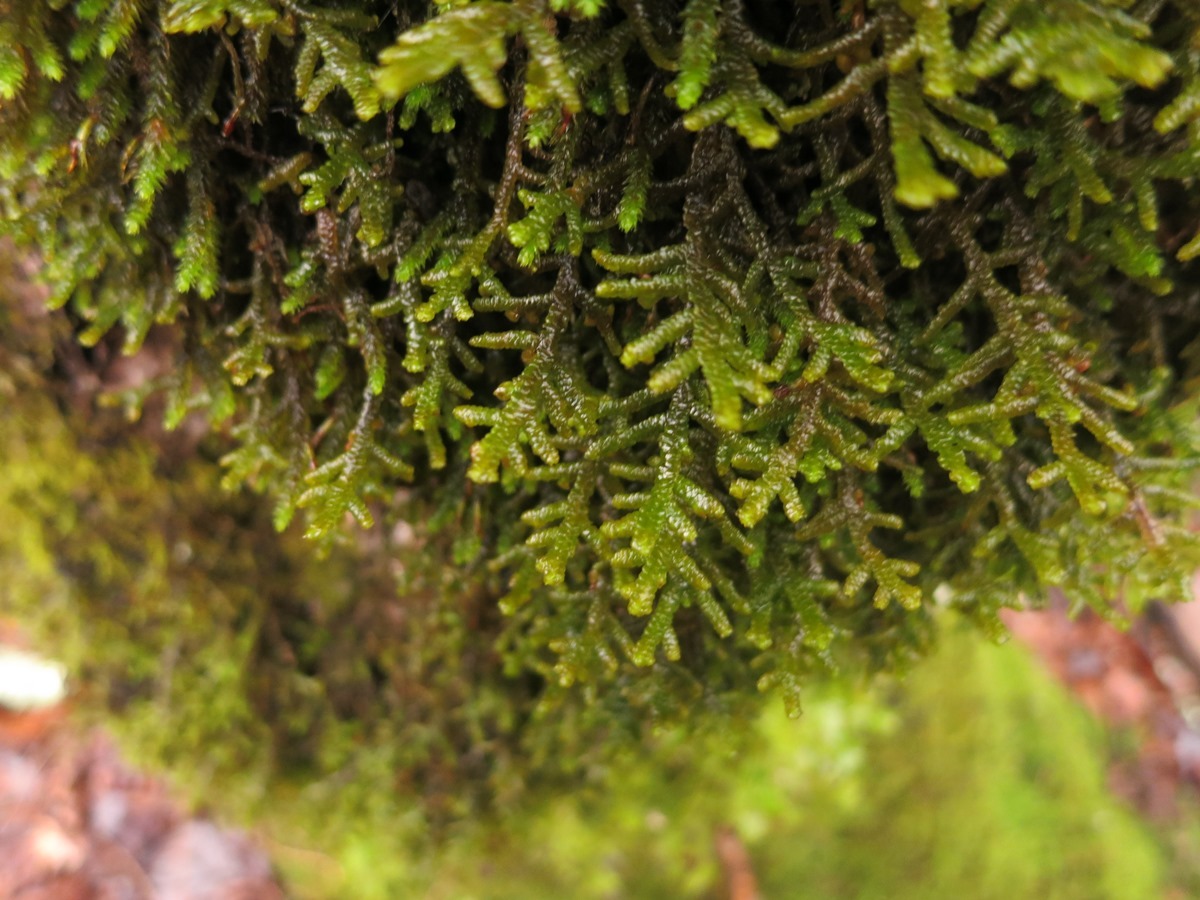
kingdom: Plantae
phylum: Marchantiophyta
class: Jungermanniopsida
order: Porellales
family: Porellaceae
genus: Porella
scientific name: Porella platyphylla
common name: Wall scalewort
